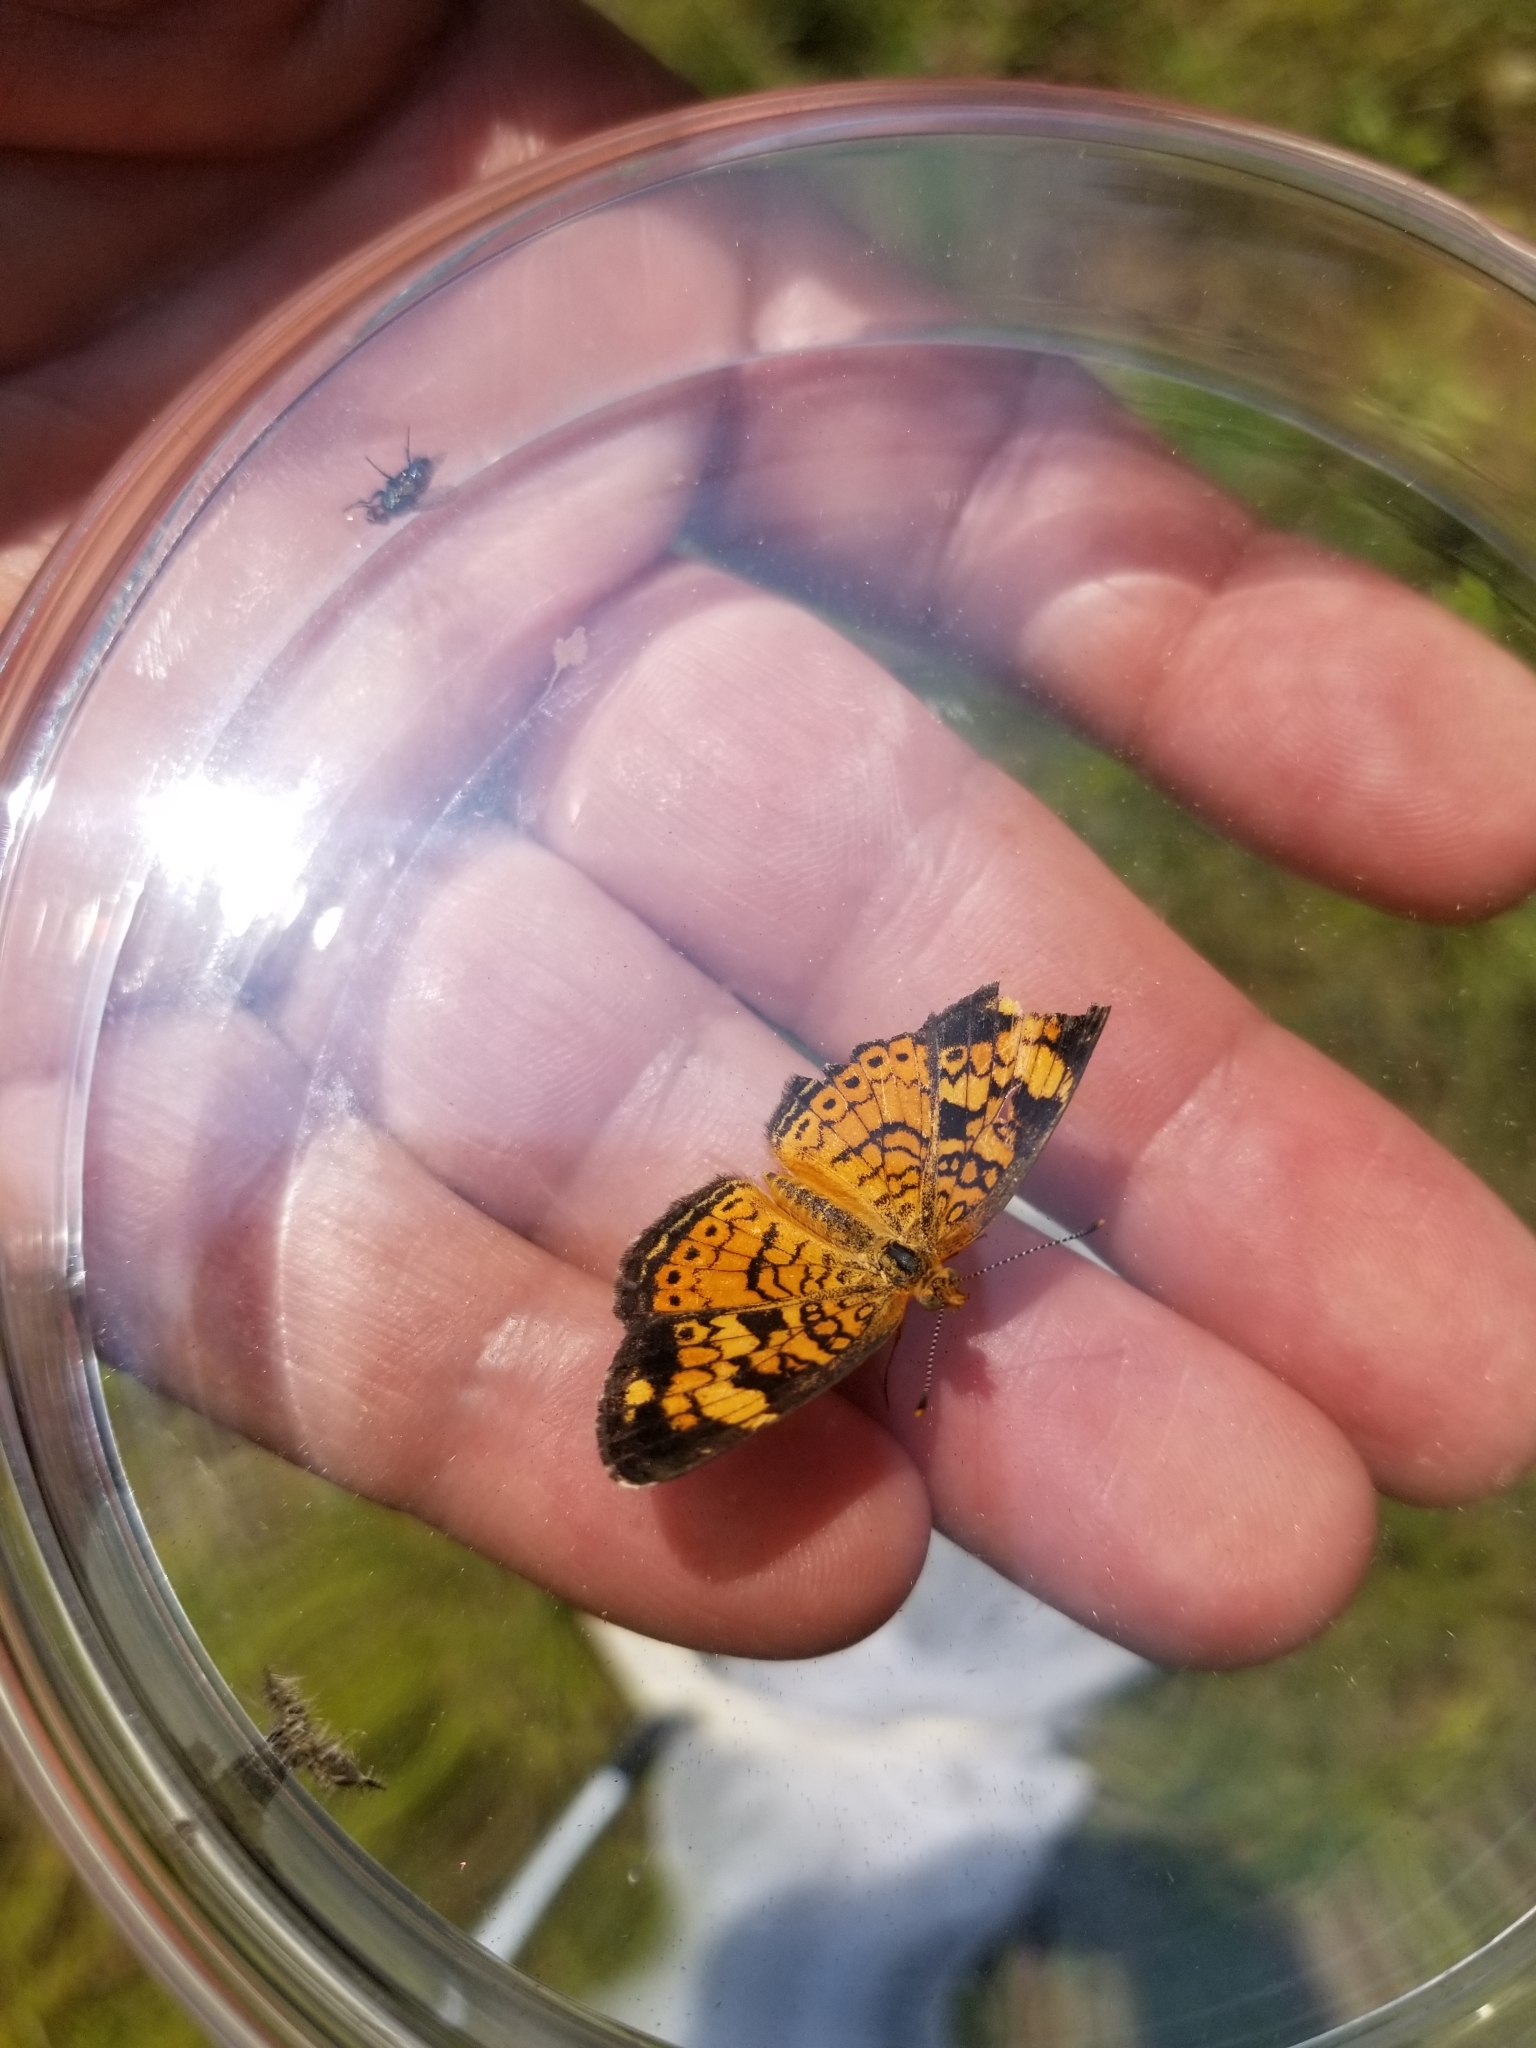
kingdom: Animalia
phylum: Arthropoda
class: Insecta
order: Lepidoptera
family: Nymphalidae
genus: Phyciodes
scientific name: Phyciodes tharos
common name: Pearl crescent
